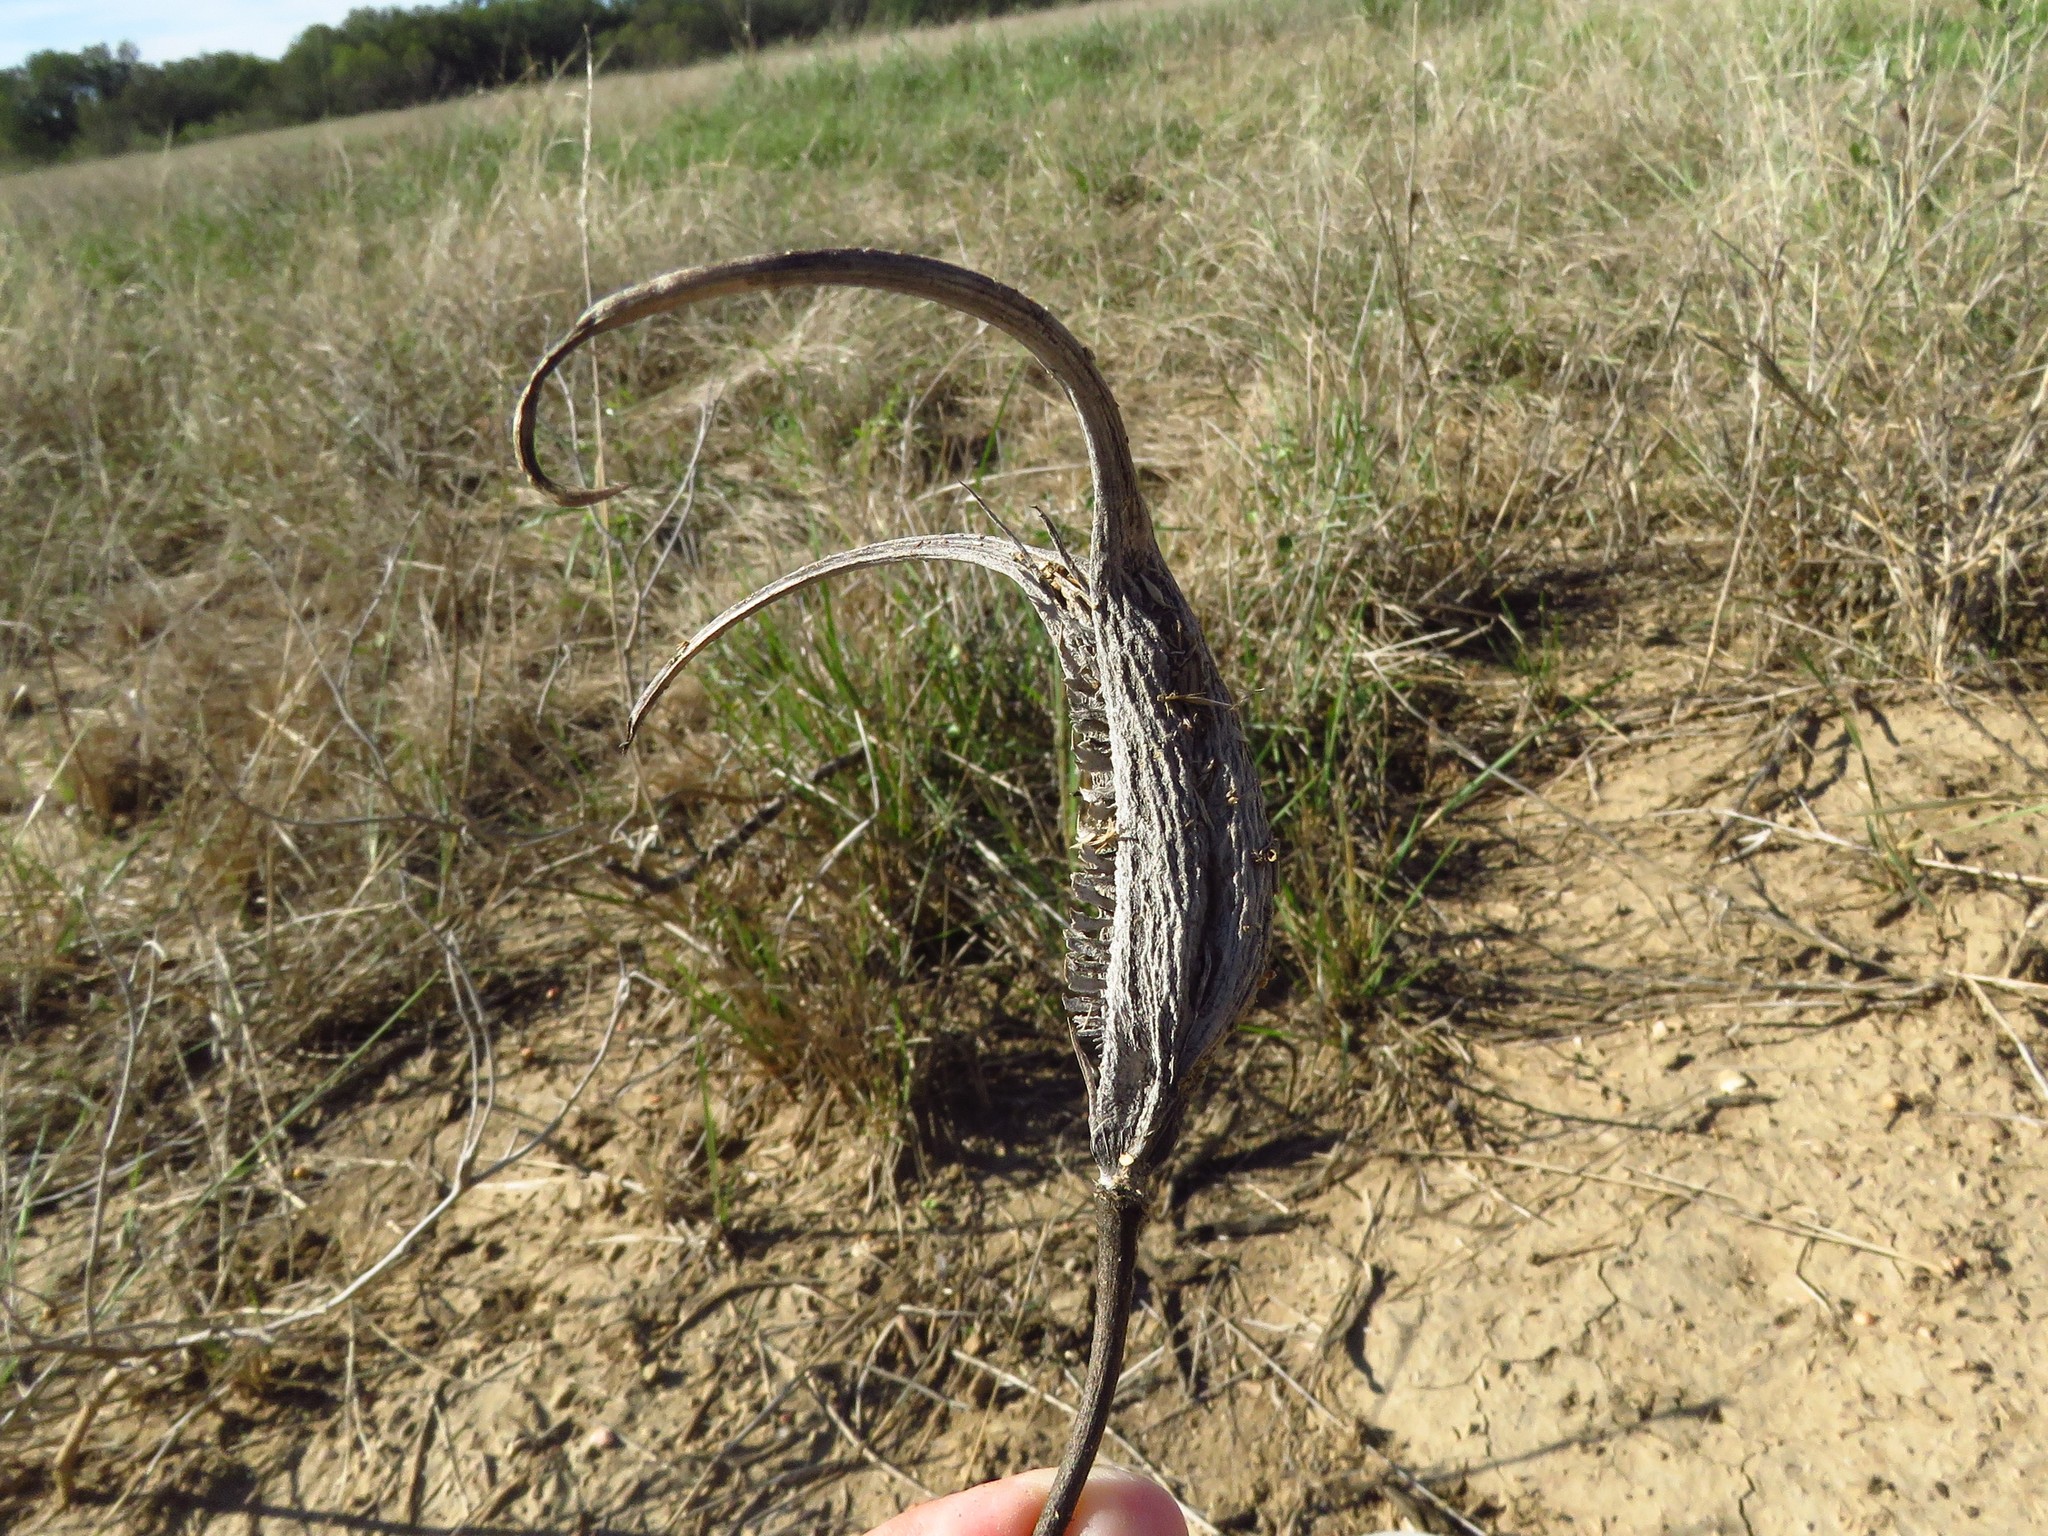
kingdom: Plantae
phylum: Tracheophyta
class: Magnoliopsida
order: Lamiales
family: Martyniaceae
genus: Proboscidea
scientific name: Proboscidea louisianica
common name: Elephant tusks
